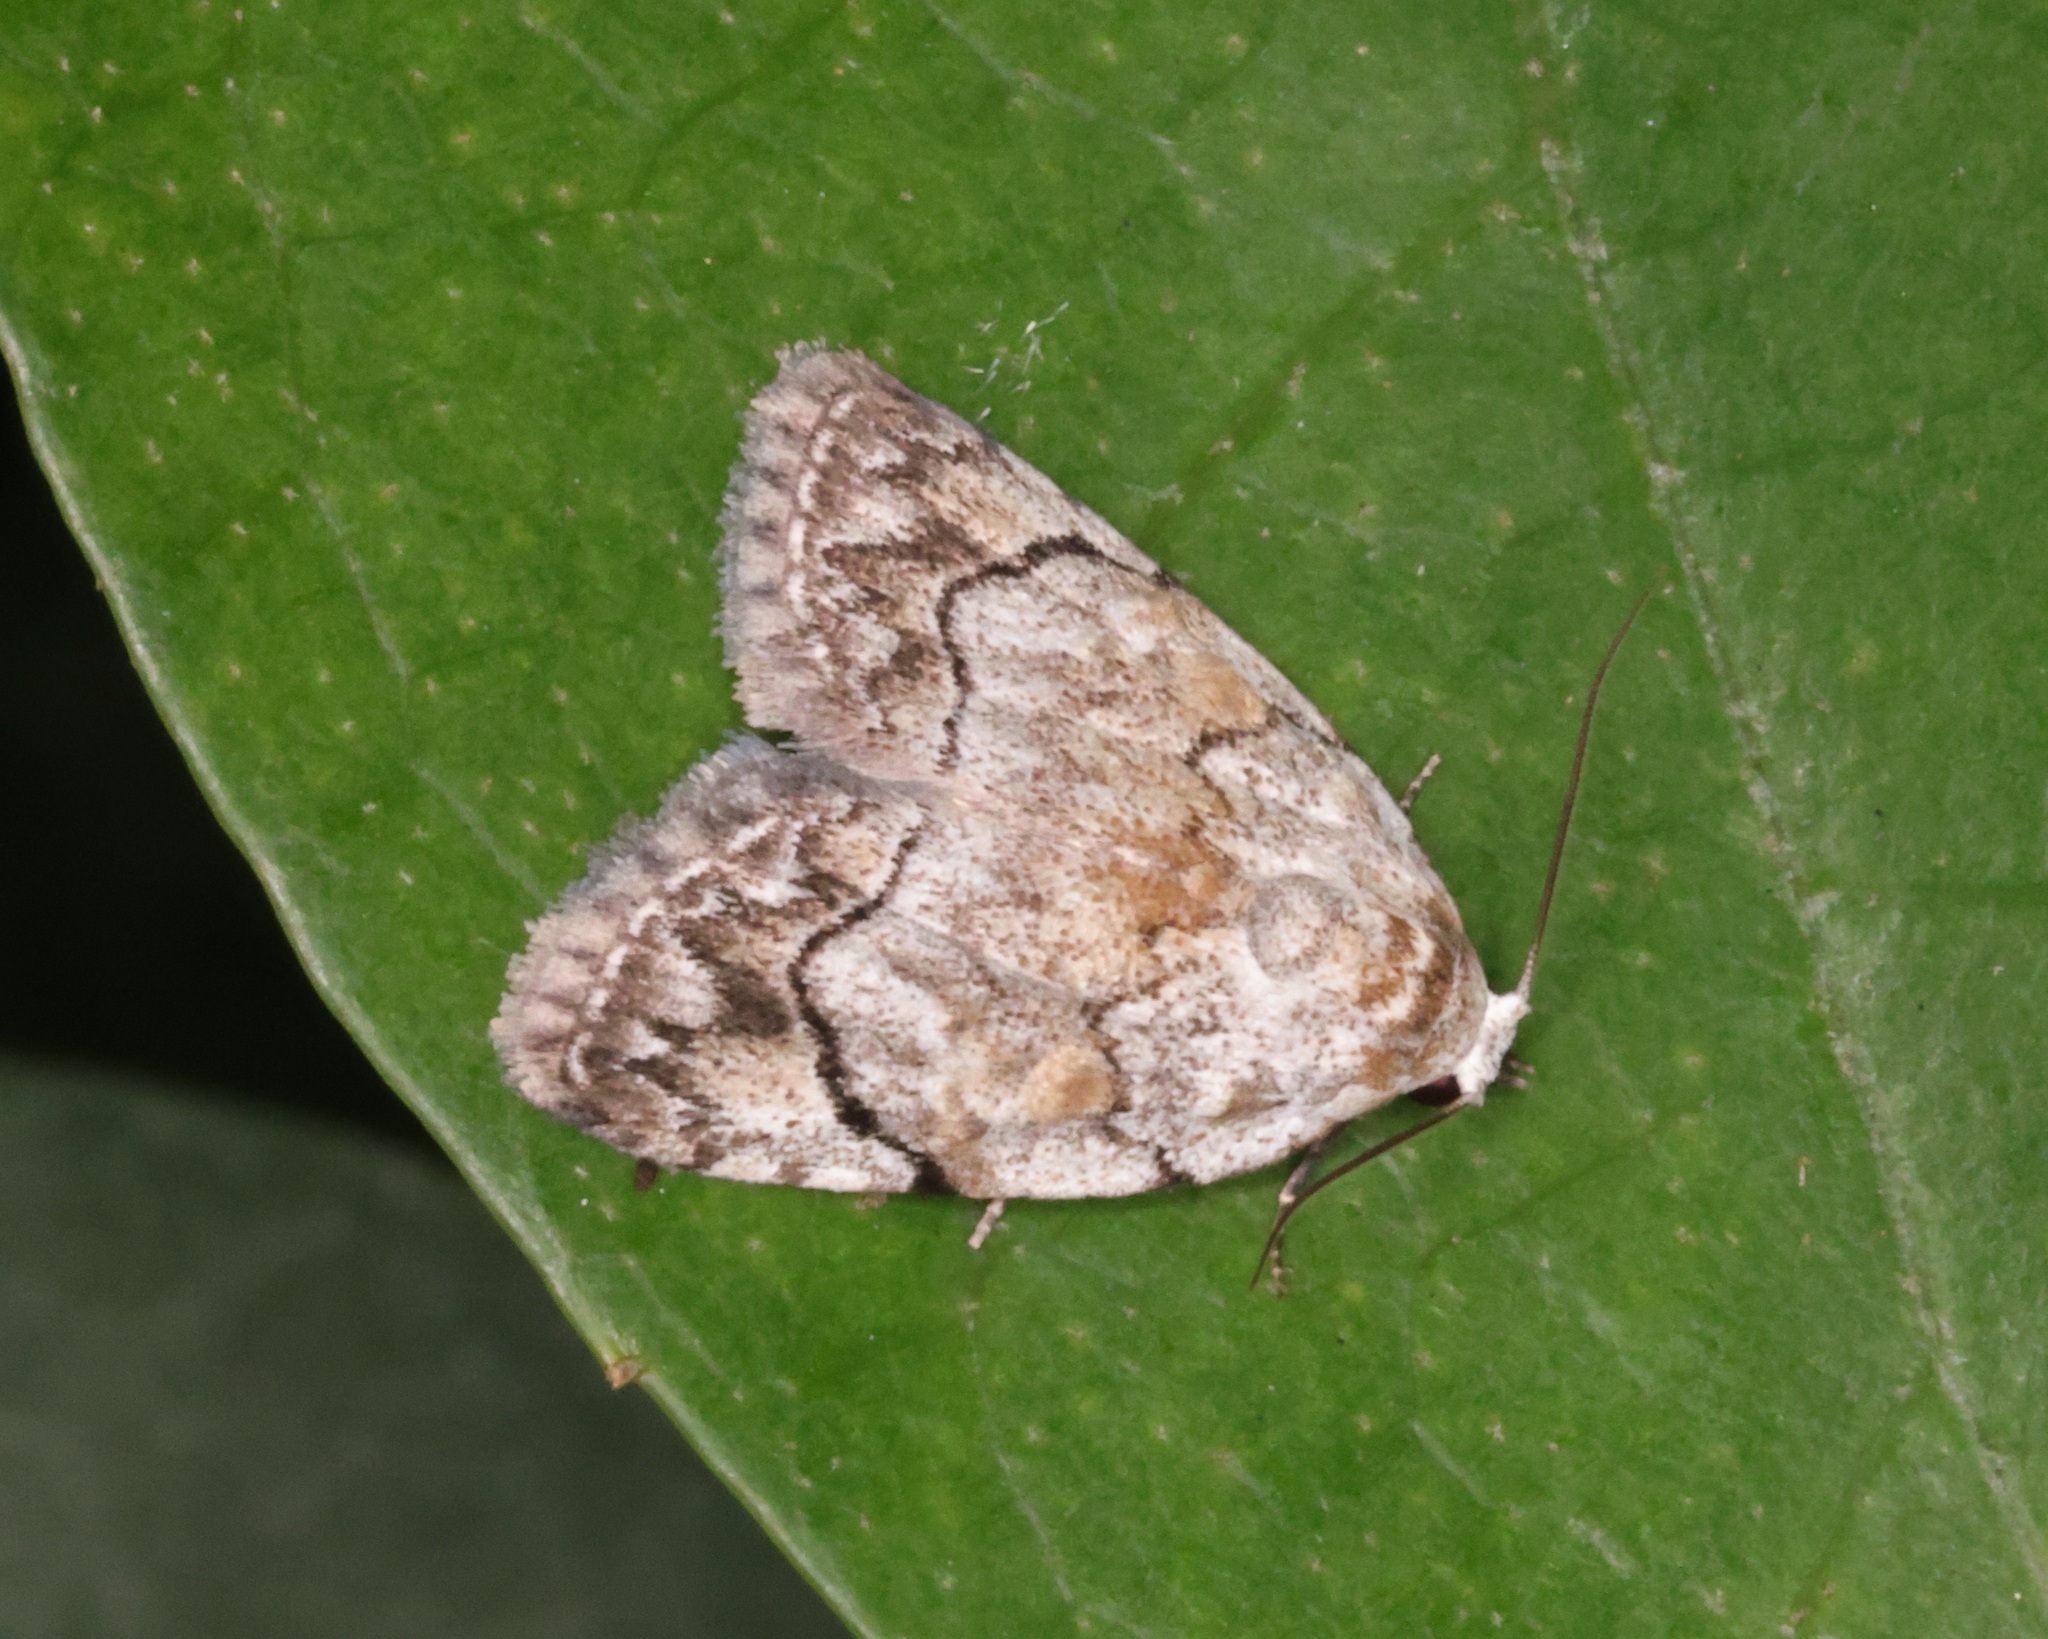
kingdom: Animalia
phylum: Arthropoda
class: Insecta
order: Lepidoptera
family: Nolidae
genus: Melanographia
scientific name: Melanographia flexilineata
